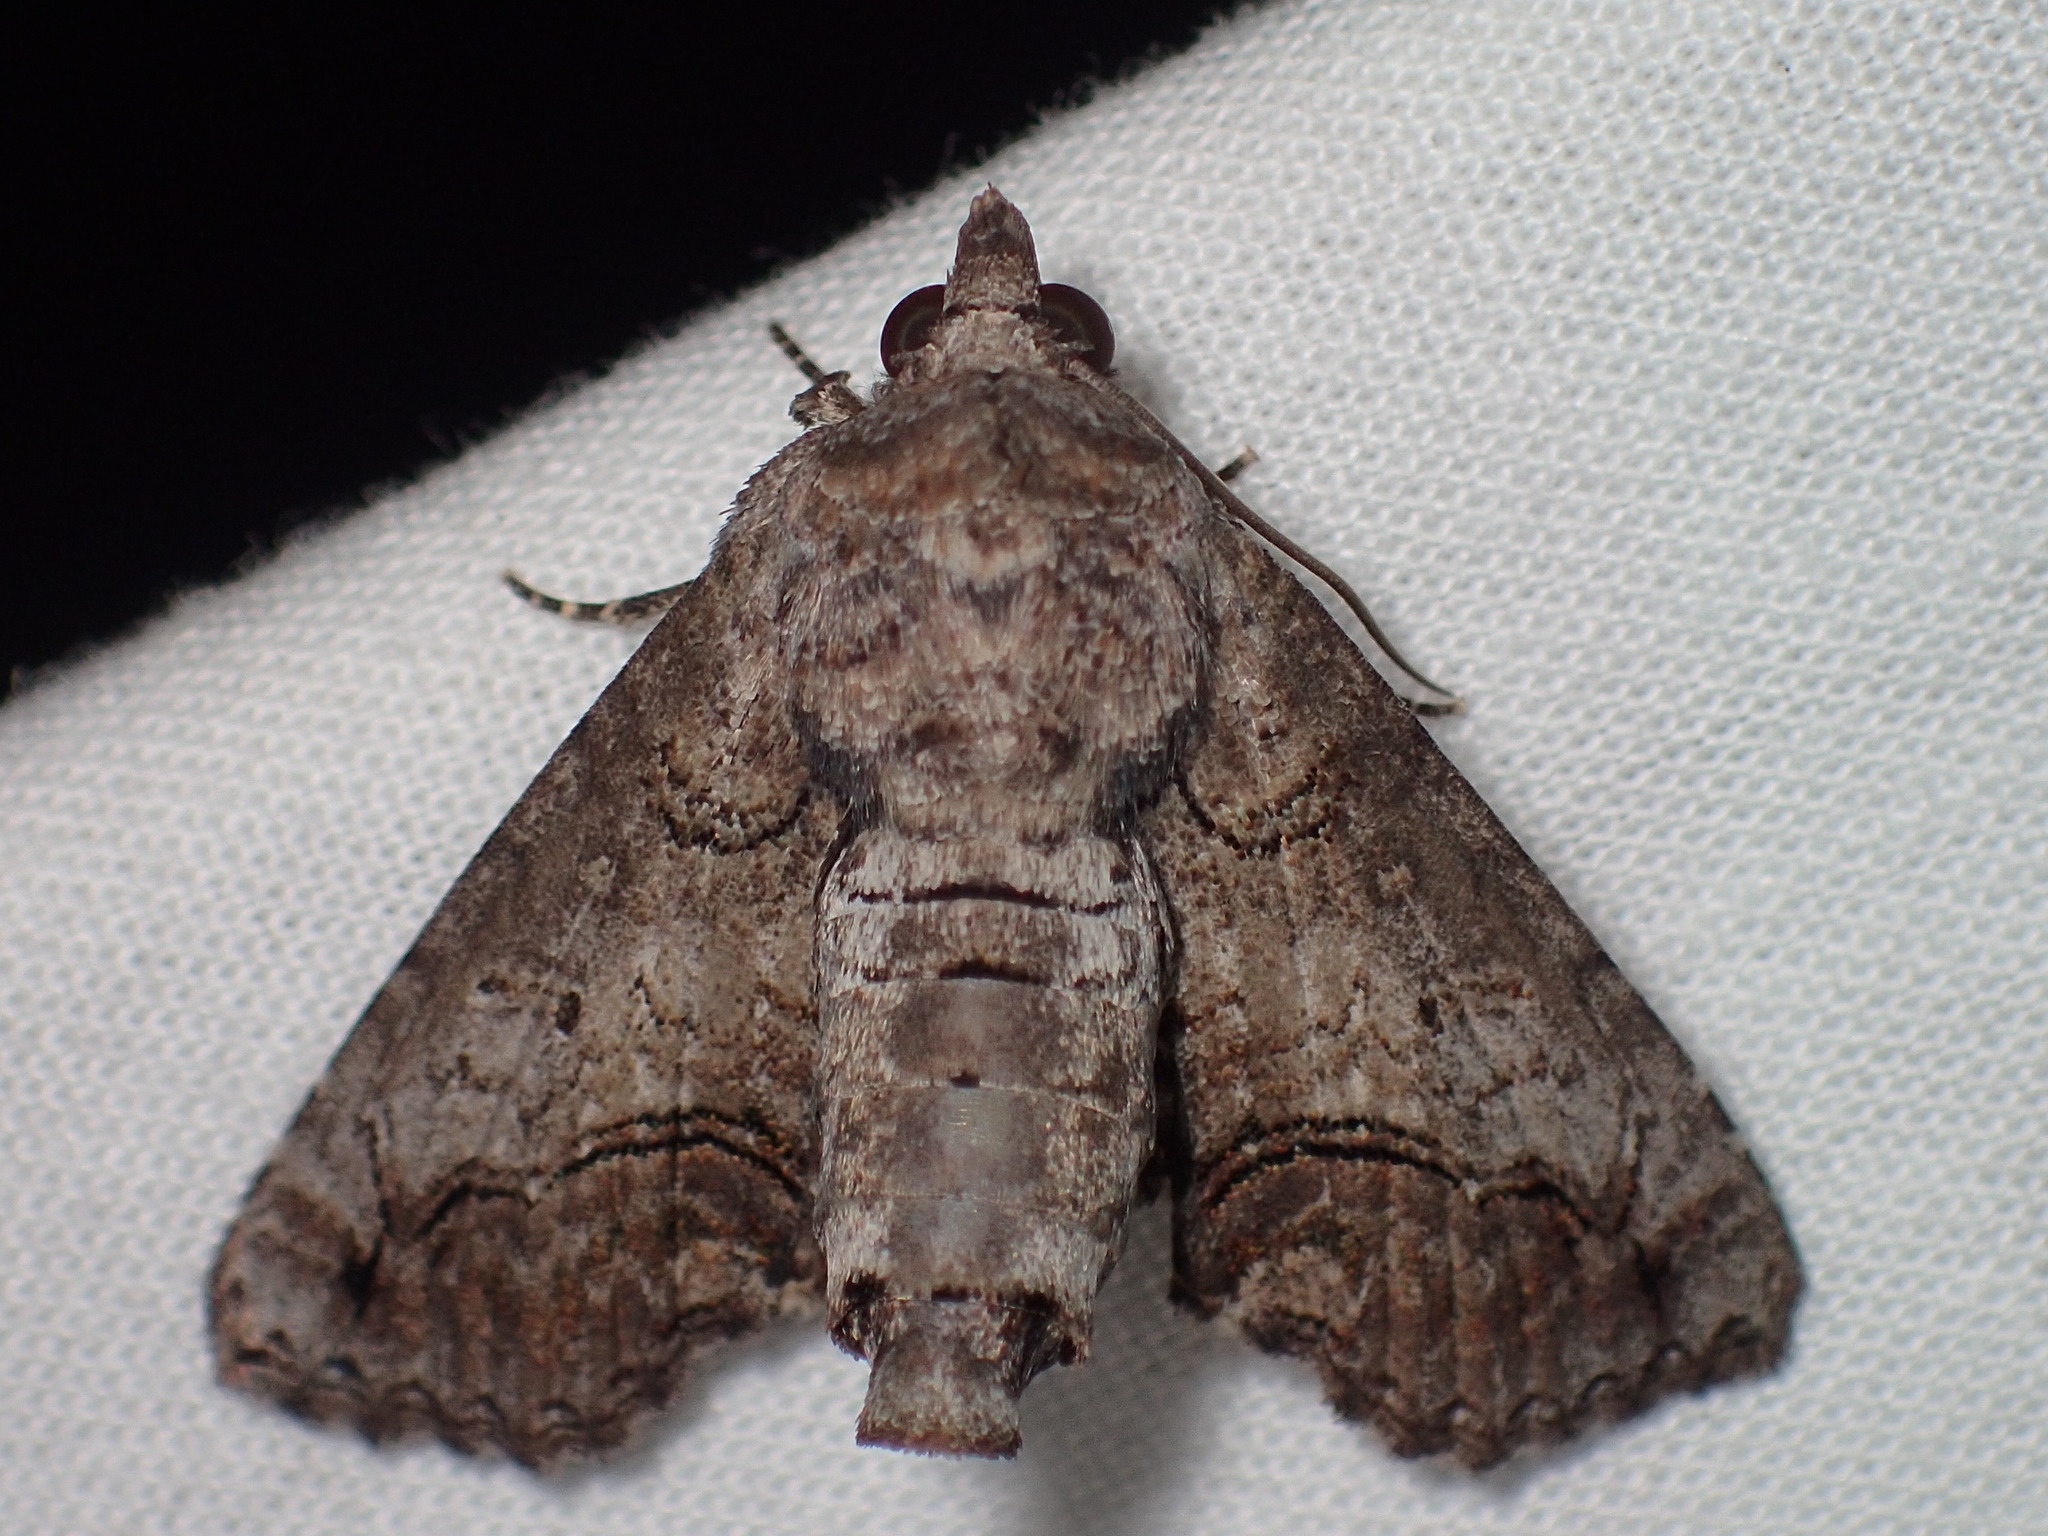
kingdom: Animalia
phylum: Arthropoda
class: Insecta
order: Lepidoptera
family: Euteliidae
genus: Paectes
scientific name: Paectes abrostoloides
